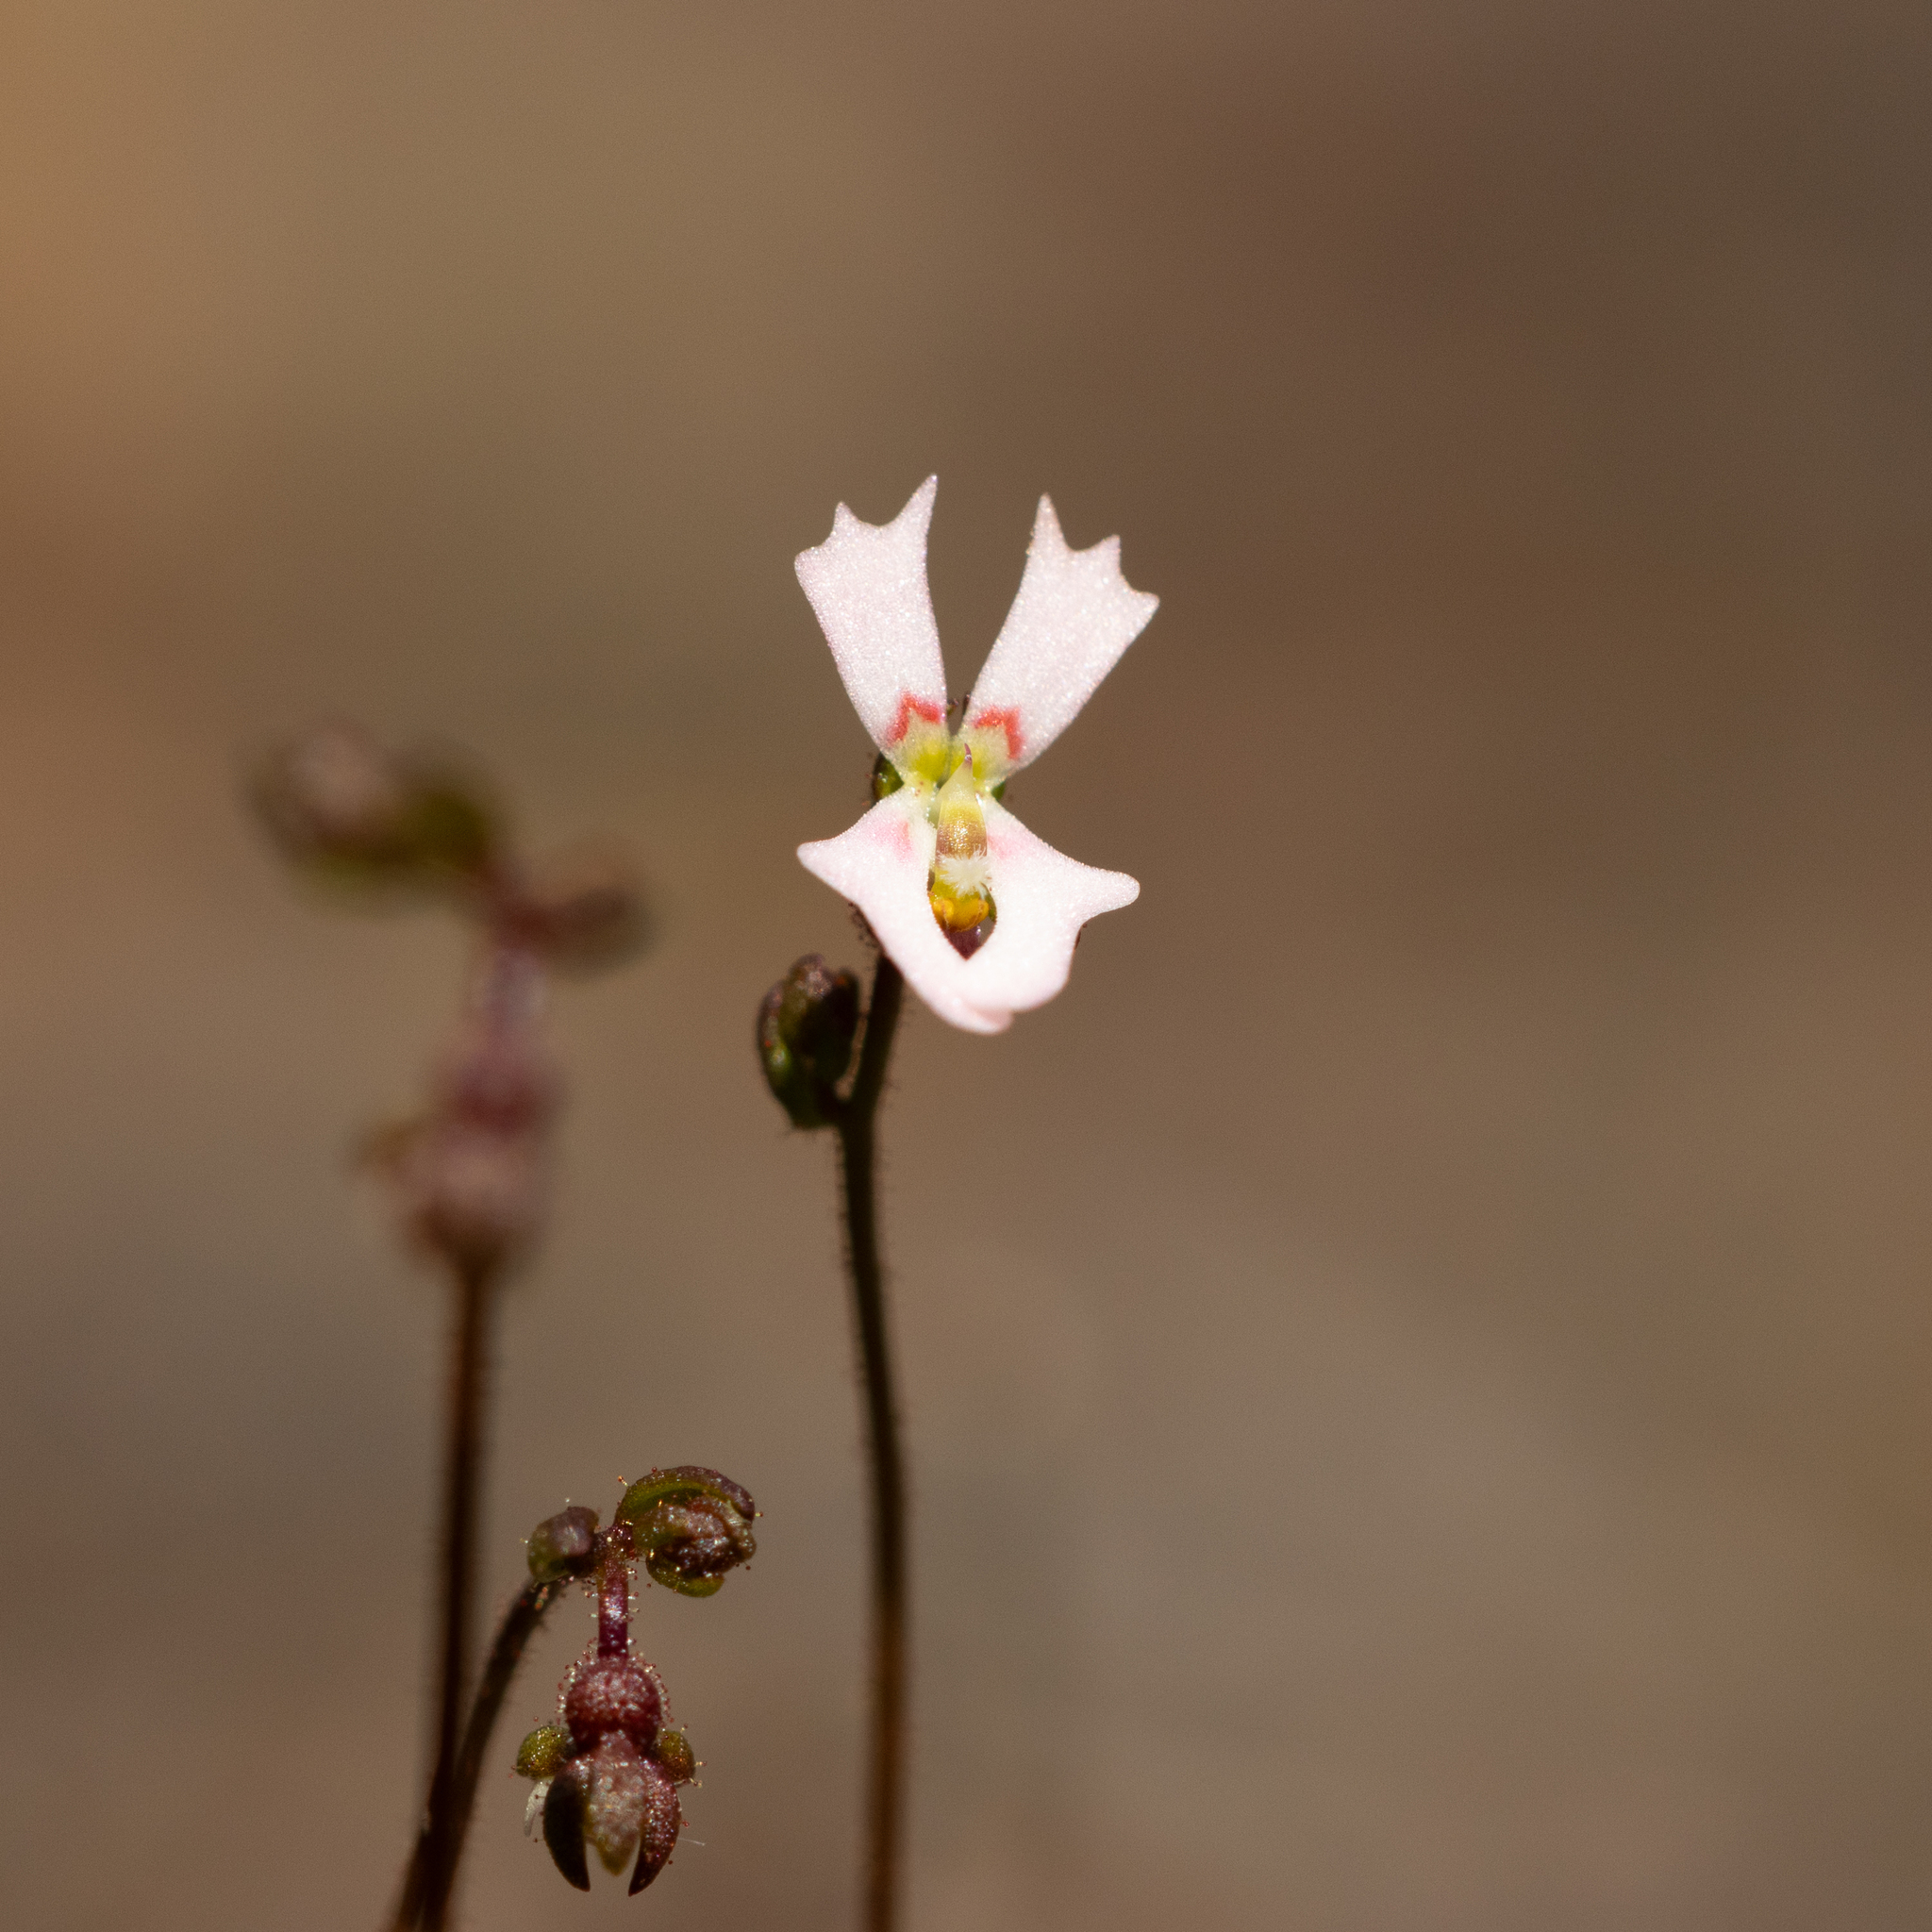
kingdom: Plantae
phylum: Tracheophyta
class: Magnoliopsida
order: Asterales
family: Stylidiaceae
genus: Stylidium
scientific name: Stylidium calcaratum
